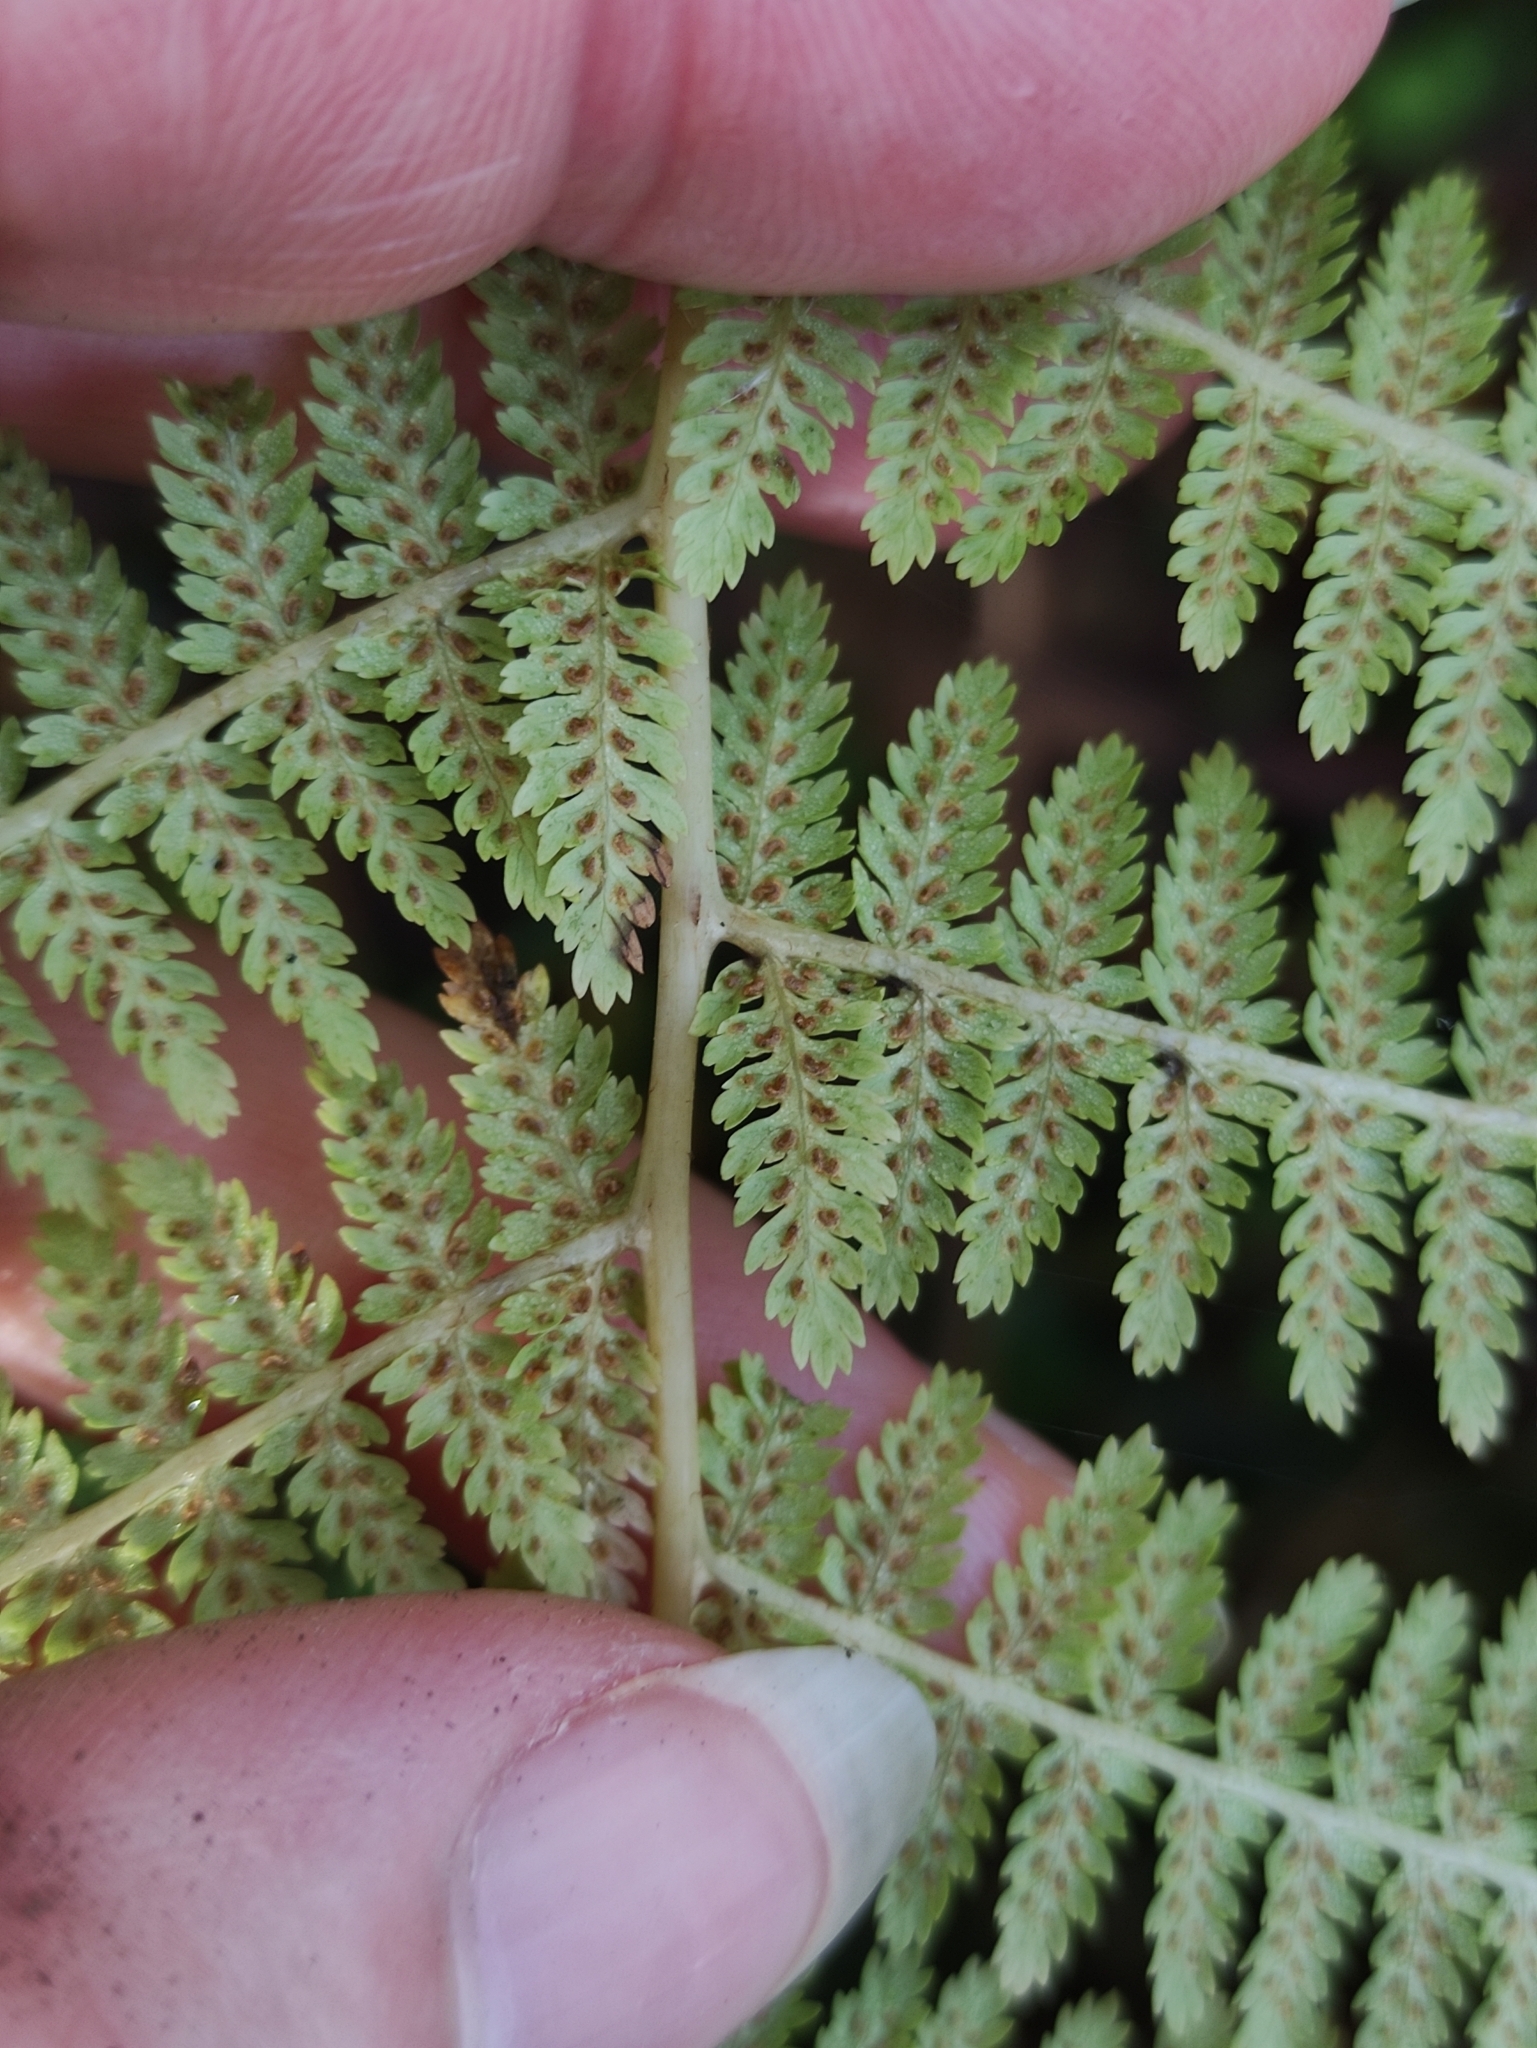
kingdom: Plantae
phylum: Tracheophyta
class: Polypodiopsida
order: Polypodiales
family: Athyriaceae
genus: Athyrium
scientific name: Athyrium filix-femina
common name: Lady fern
